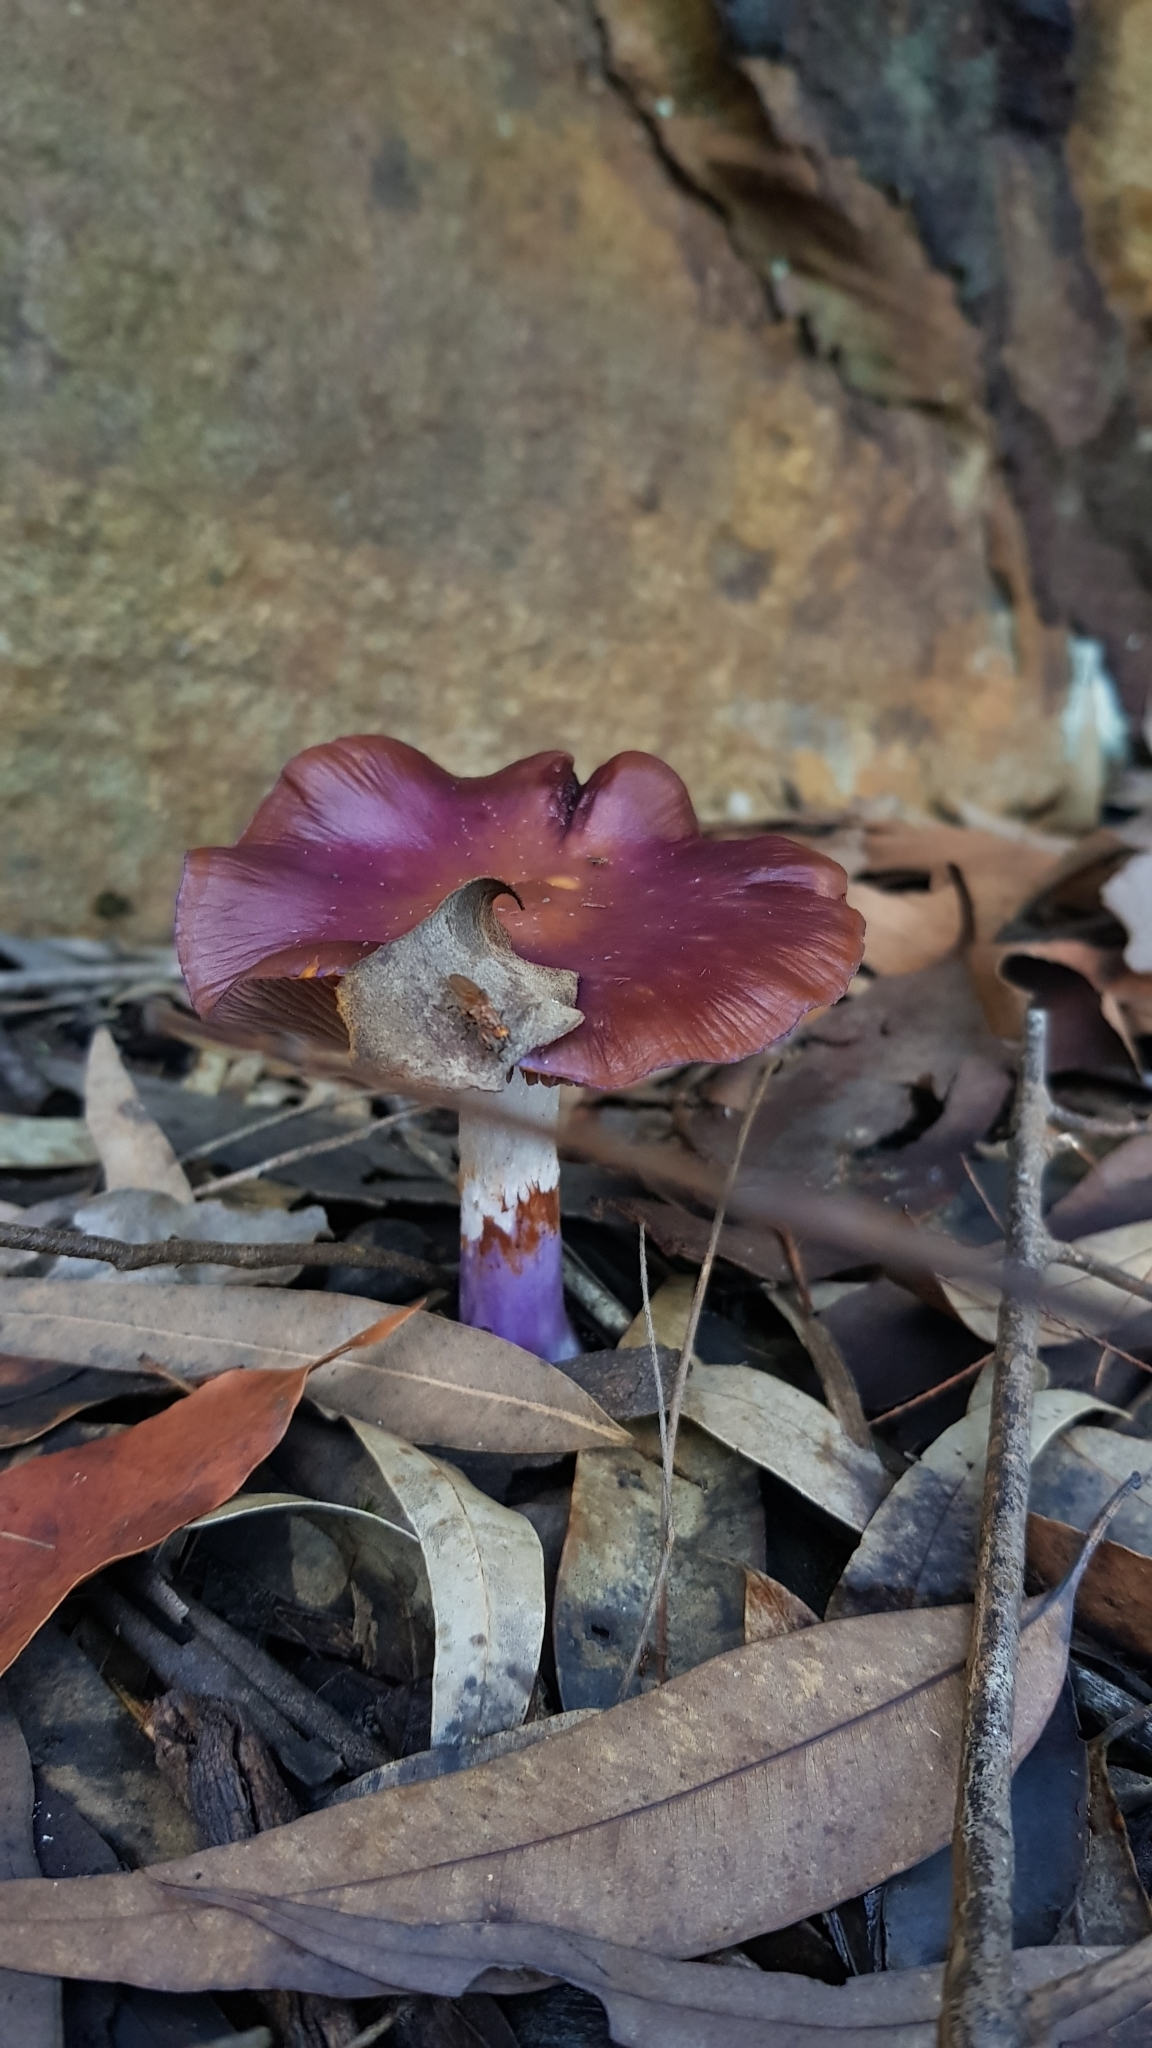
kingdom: Fungi
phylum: Basidiomycota
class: Agaricomycetes
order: Agaricales
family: Cortinariaceae
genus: Cortinarius
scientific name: Cortinarius archeri
